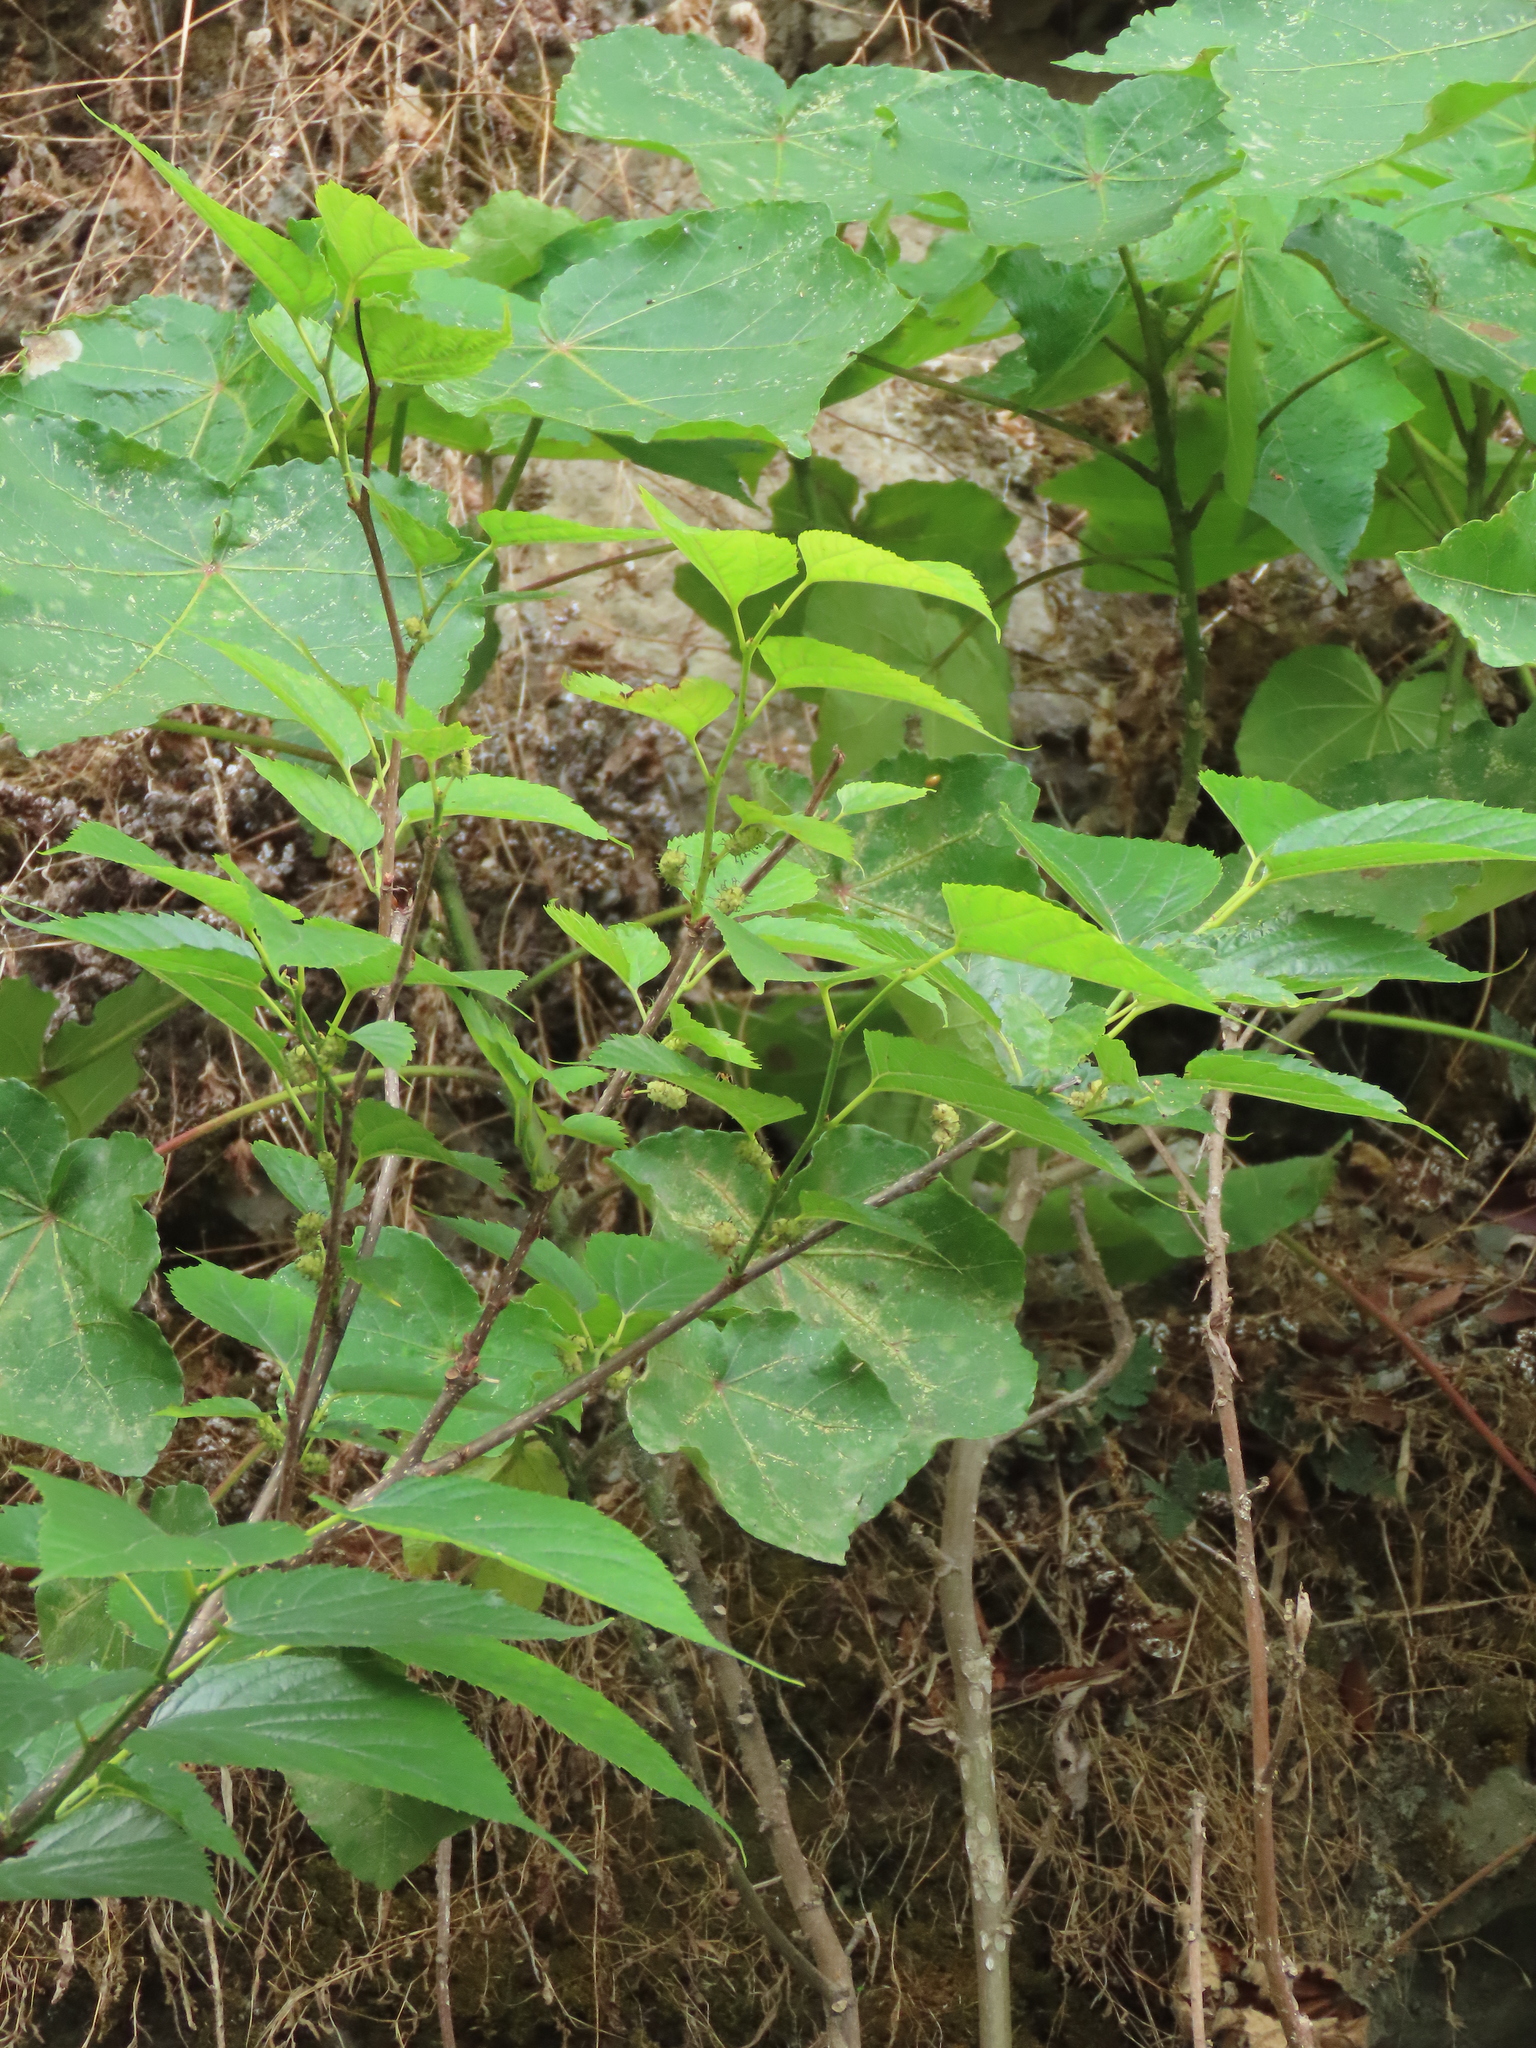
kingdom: Plantae
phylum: Tracheophyta
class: Magnoliopsida
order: Rosales
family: Moraceae
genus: Morus
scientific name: Morus indica
